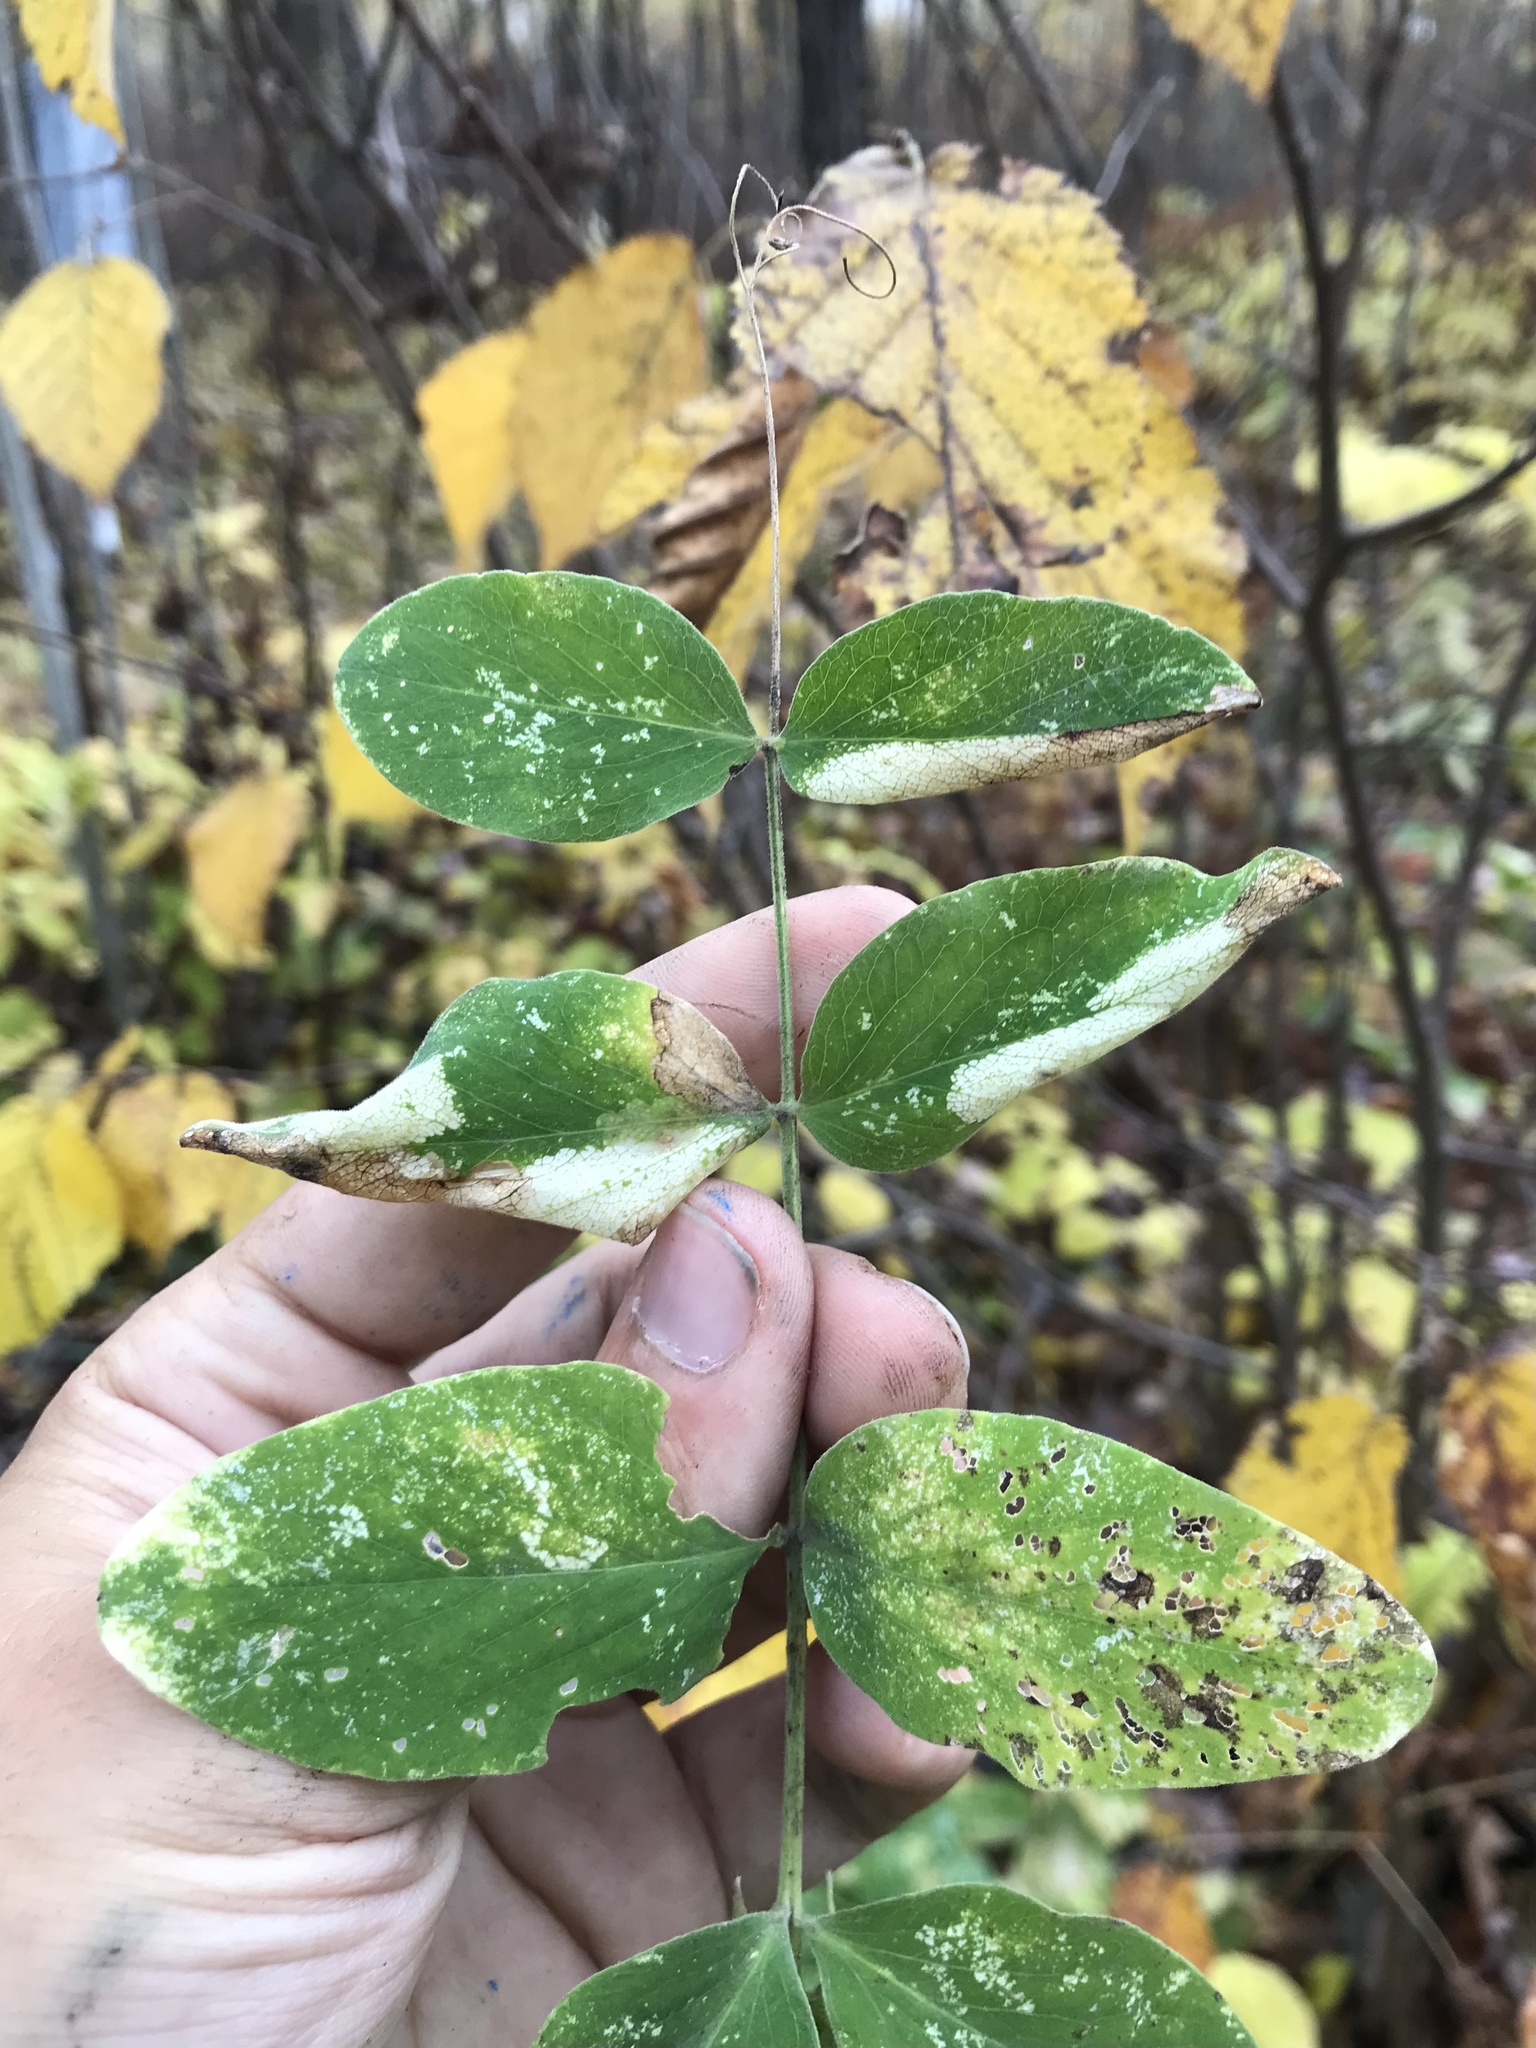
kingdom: Animalia
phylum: Arthropoda
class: Insecta
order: Lepidoptera
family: Gracillariidae
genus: Protolithocolletis
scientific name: Protolithocolletis lathyri
